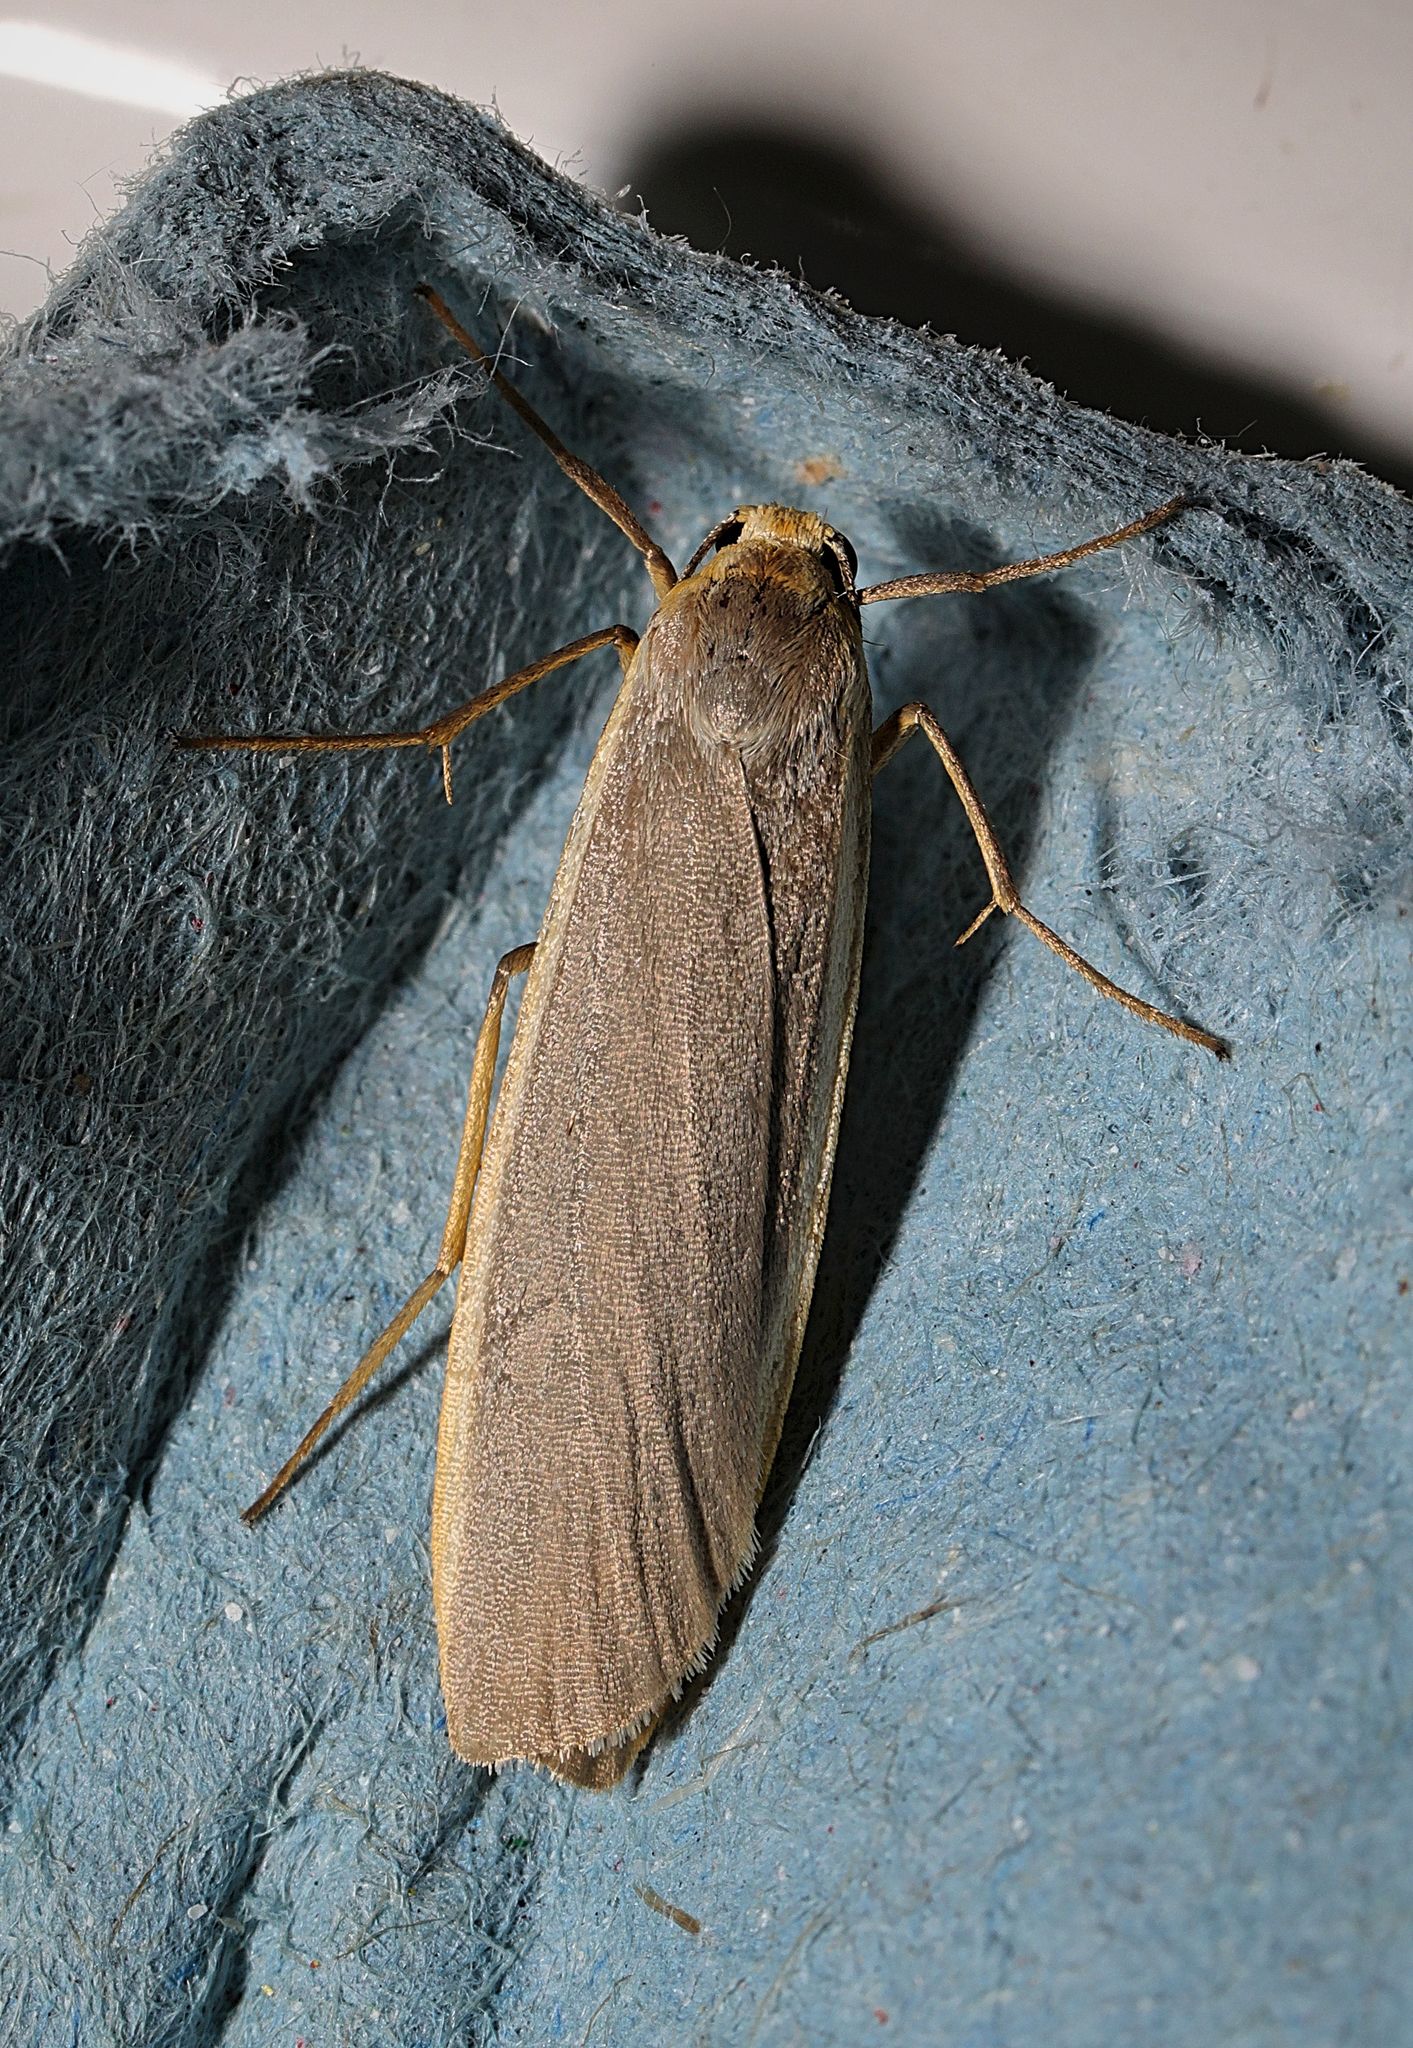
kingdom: Animalia
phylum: Arthropoda
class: Insecta
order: Lepidoptera
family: Erebidae
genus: Nyea
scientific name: Nyea lurideola
